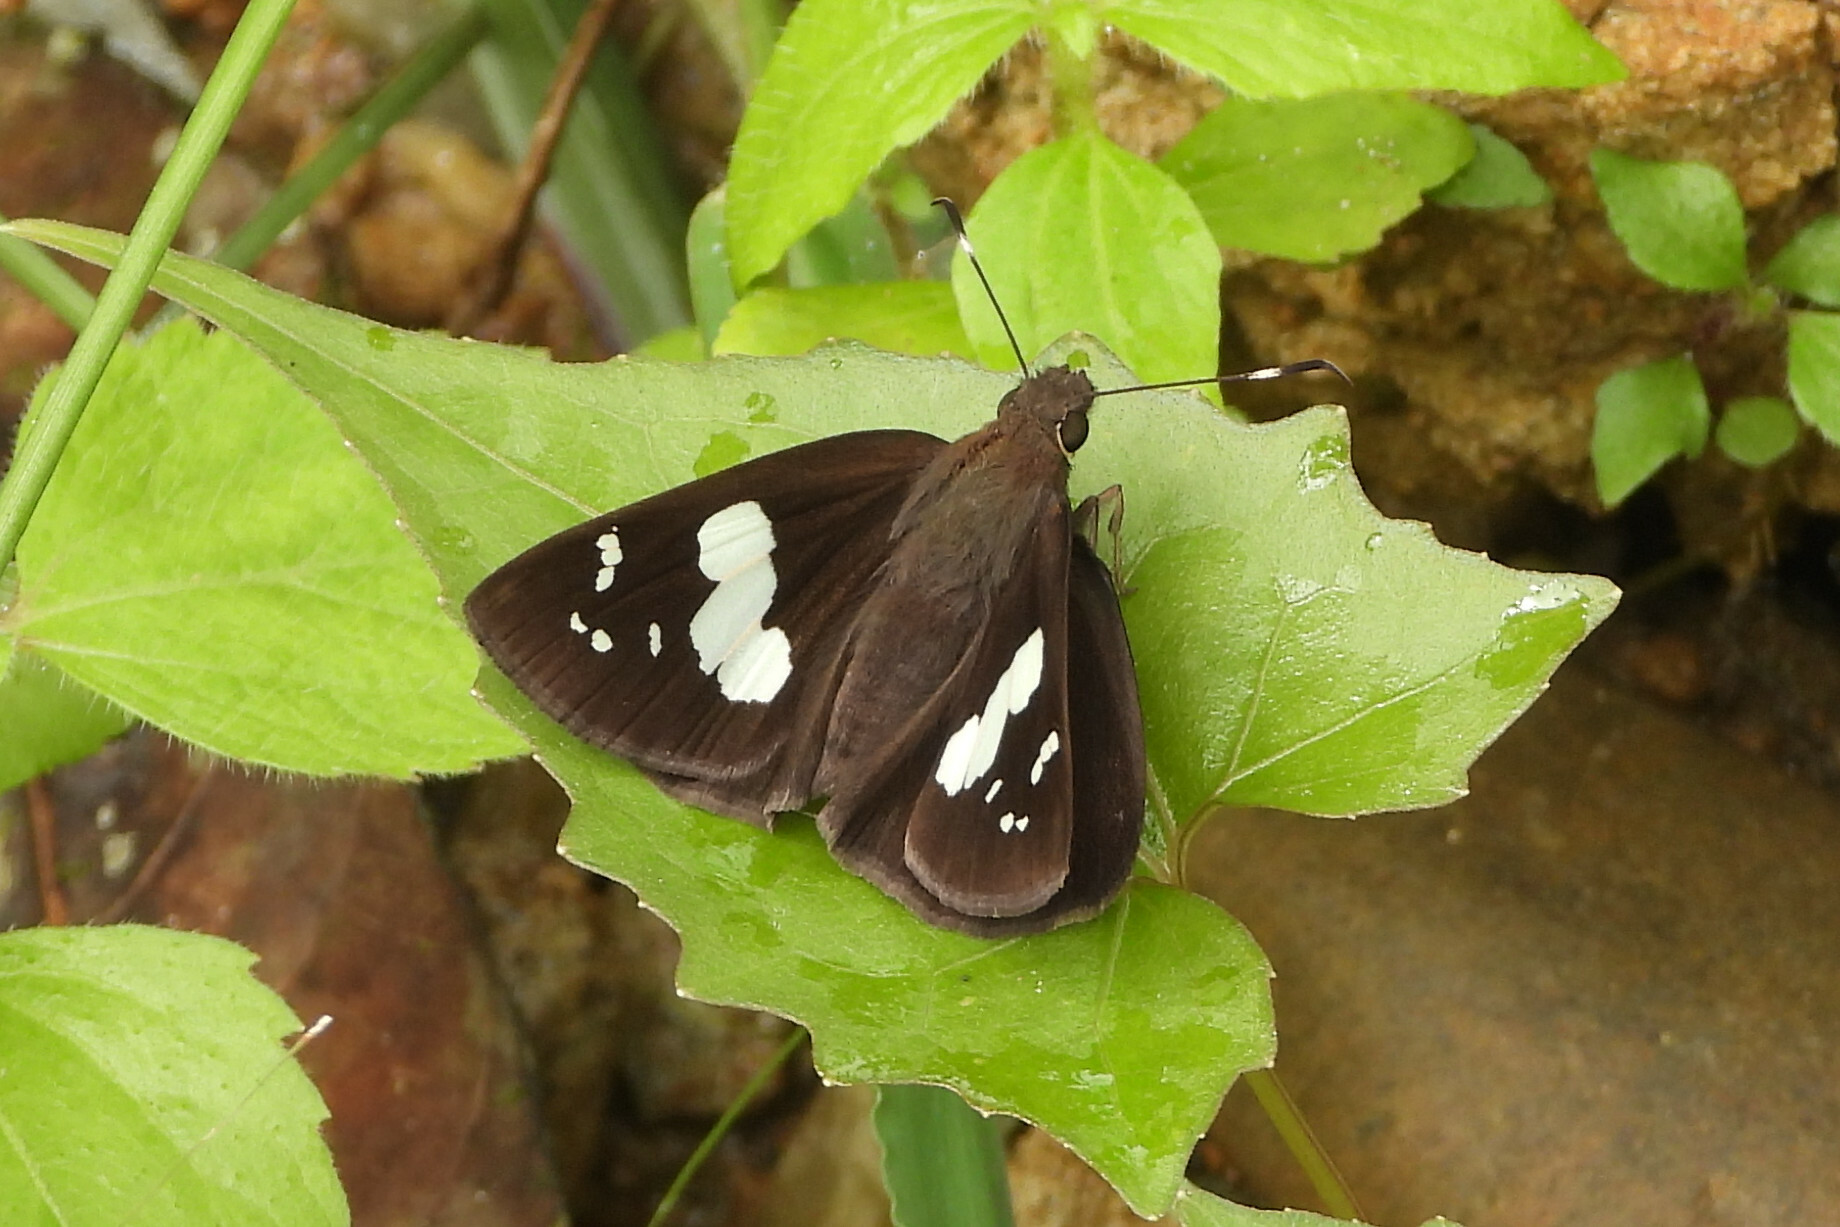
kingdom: Animalia
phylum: Arthropoda
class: Insecta
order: Lepidoptera
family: Hesperiidae
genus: Notocrypta
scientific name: Notocrypta curvifascia
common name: Restricted demon
